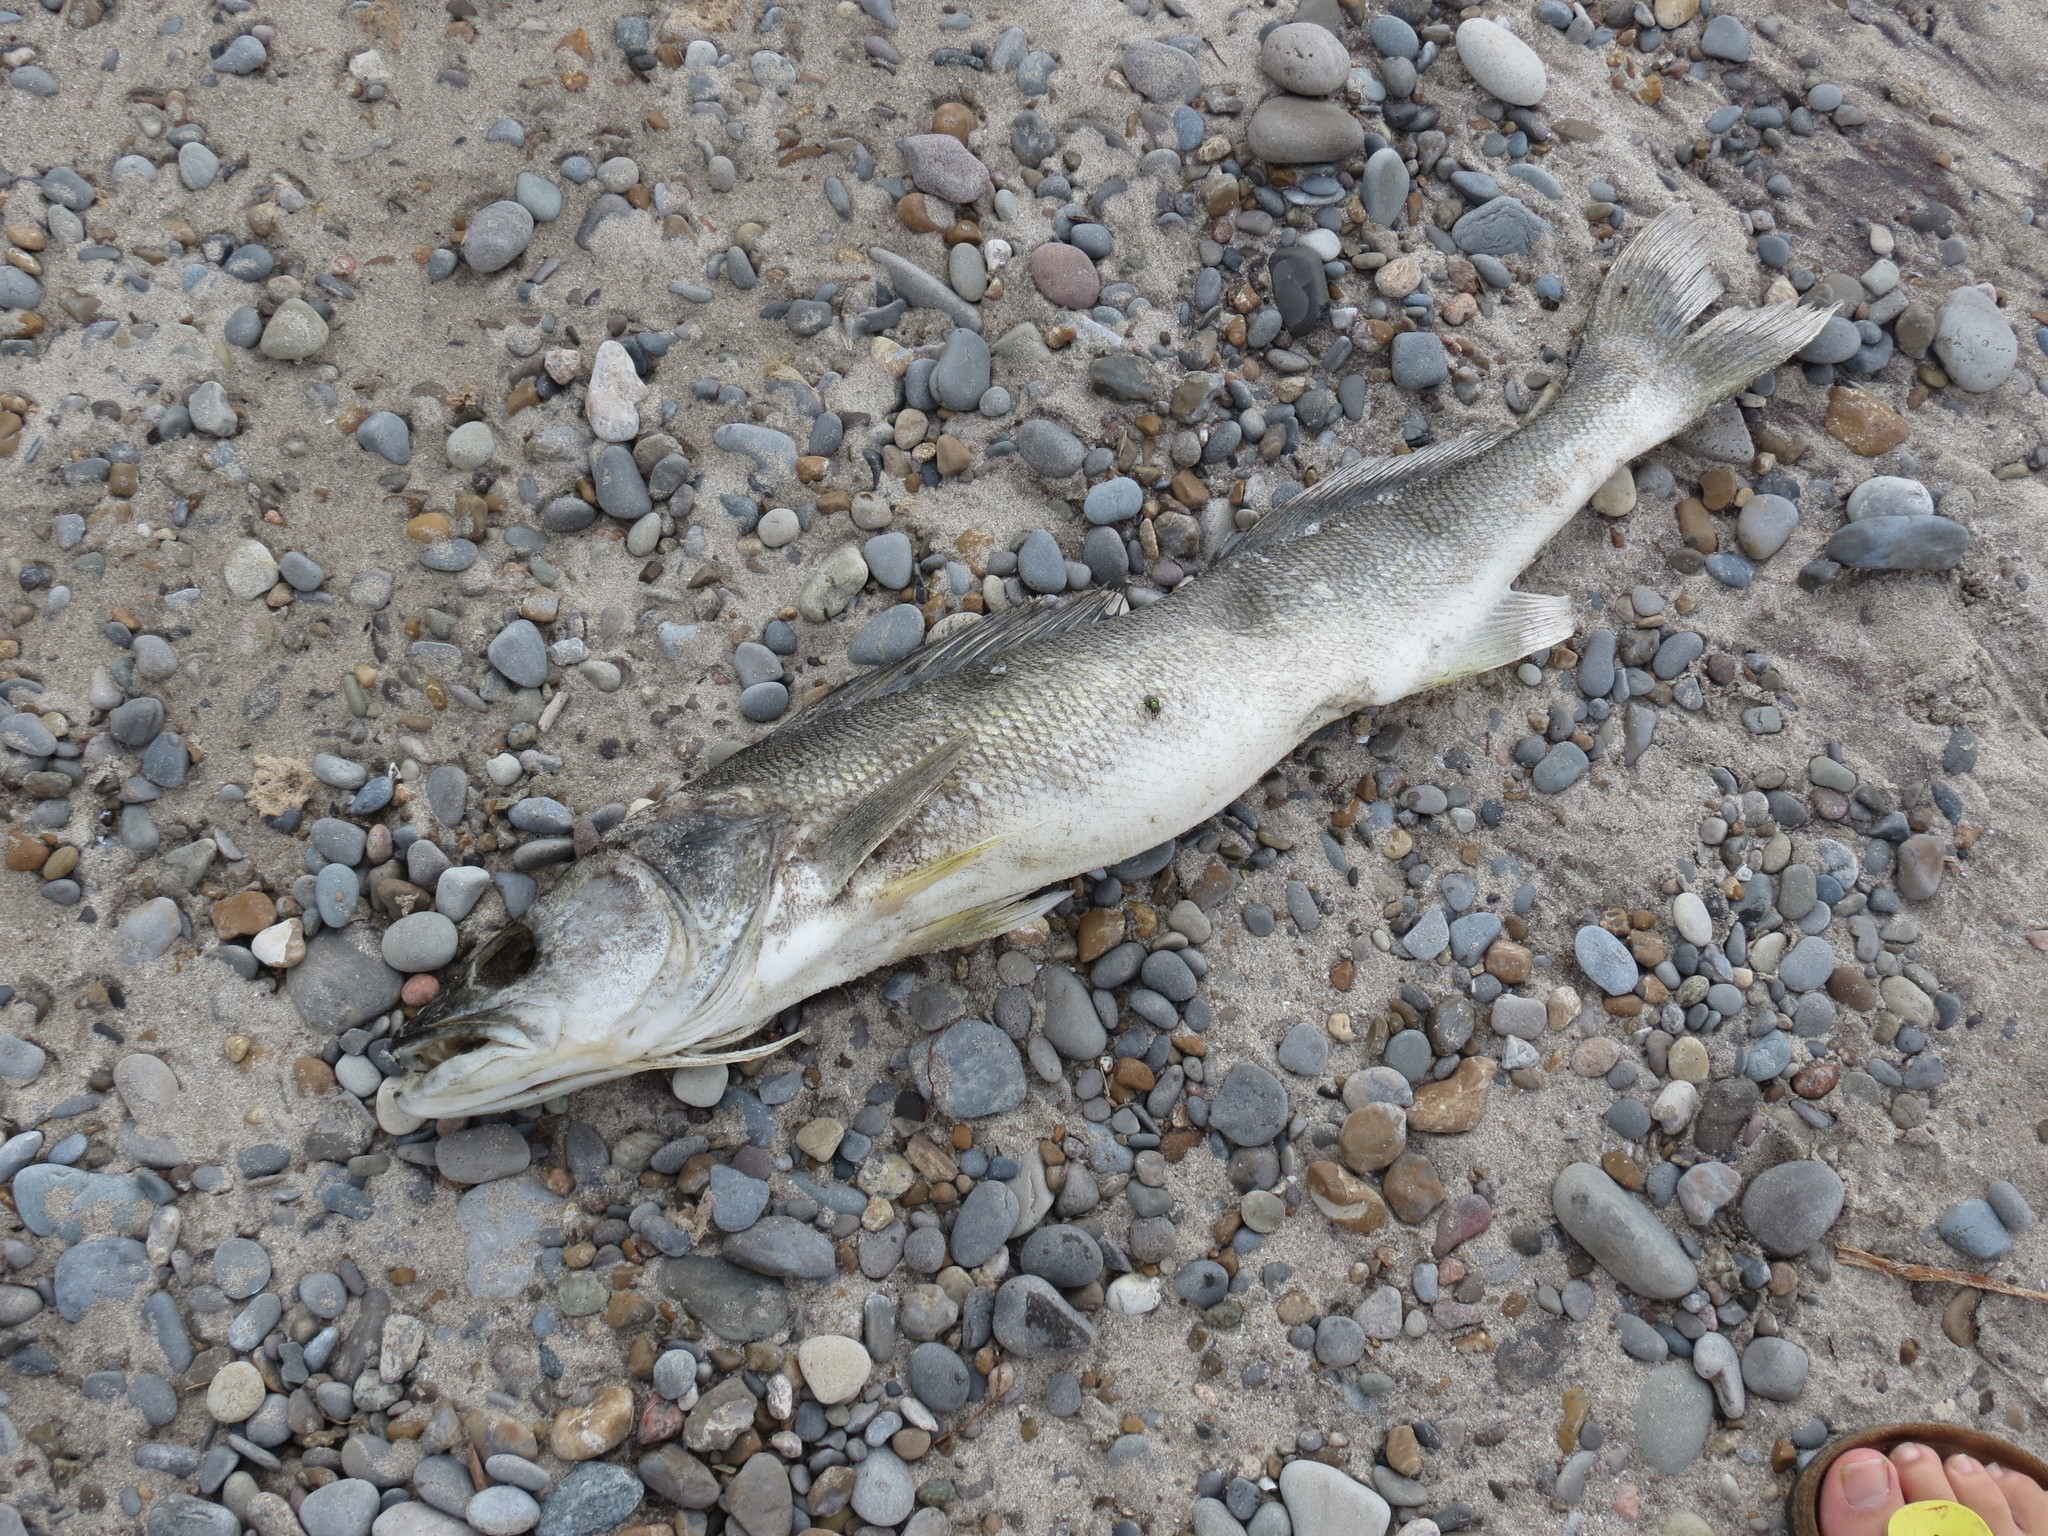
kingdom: Animalia
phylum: Chordata
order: Perciformes
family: Percidae
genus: Sander
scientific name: Sander vitreus
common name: Walleye
